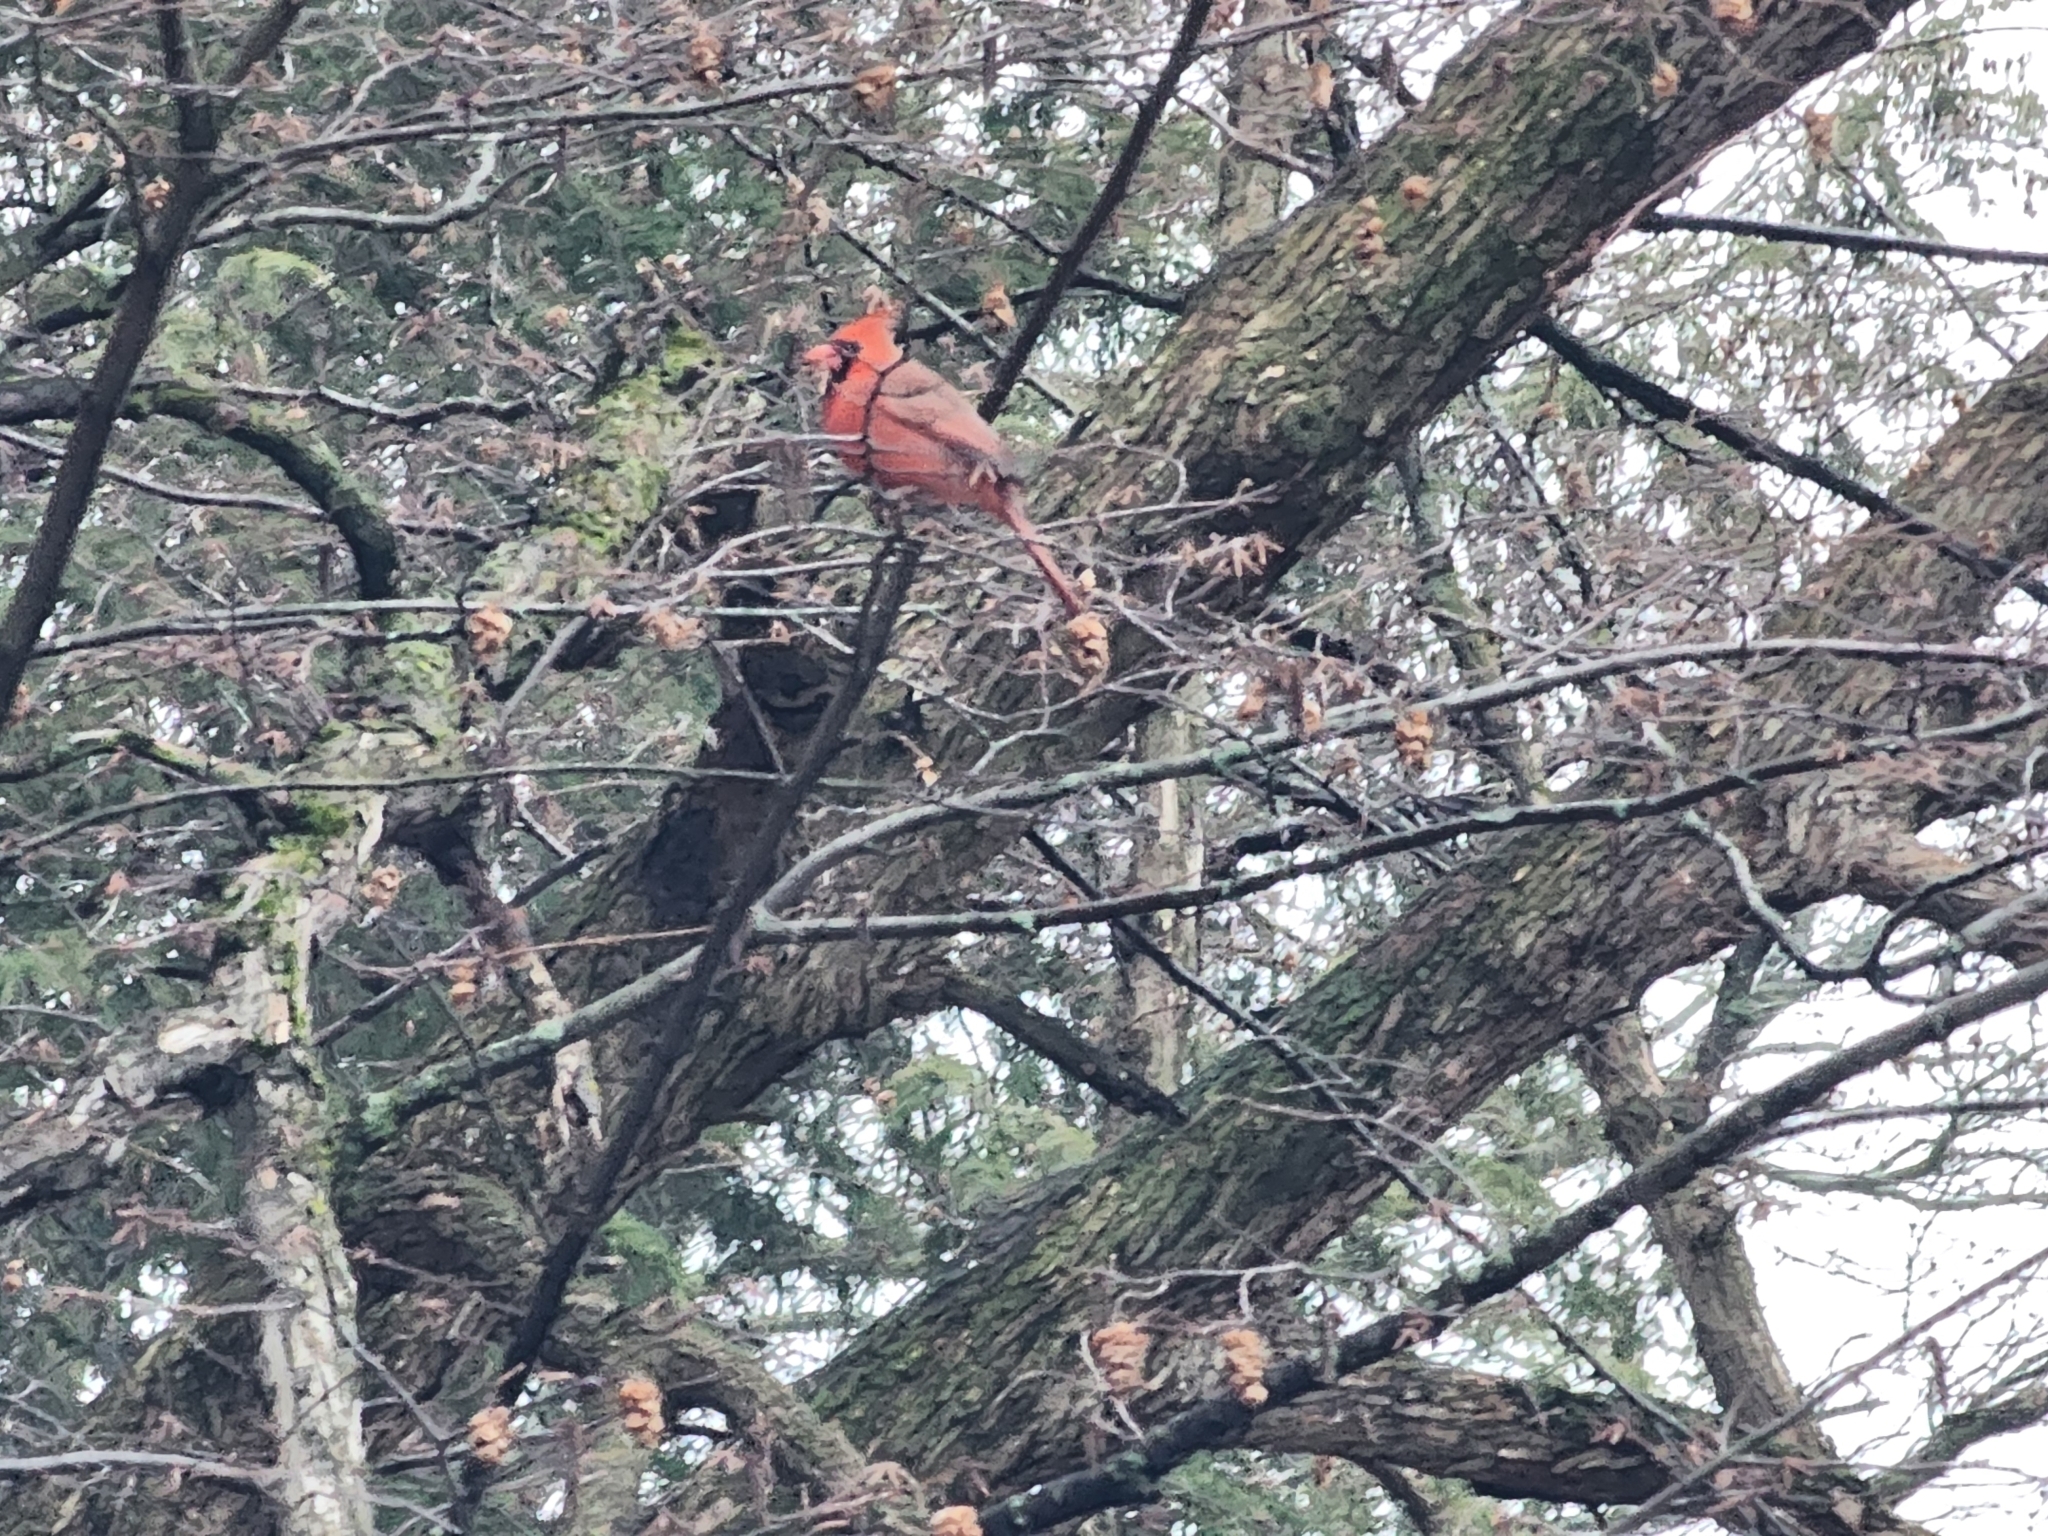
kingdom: Animalia
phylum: Chordata
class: Aves
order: Passeriformes
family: Cardinalidae
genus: Cardinalis
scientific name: Cardinalis cardinalis
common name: Northern cardinal
